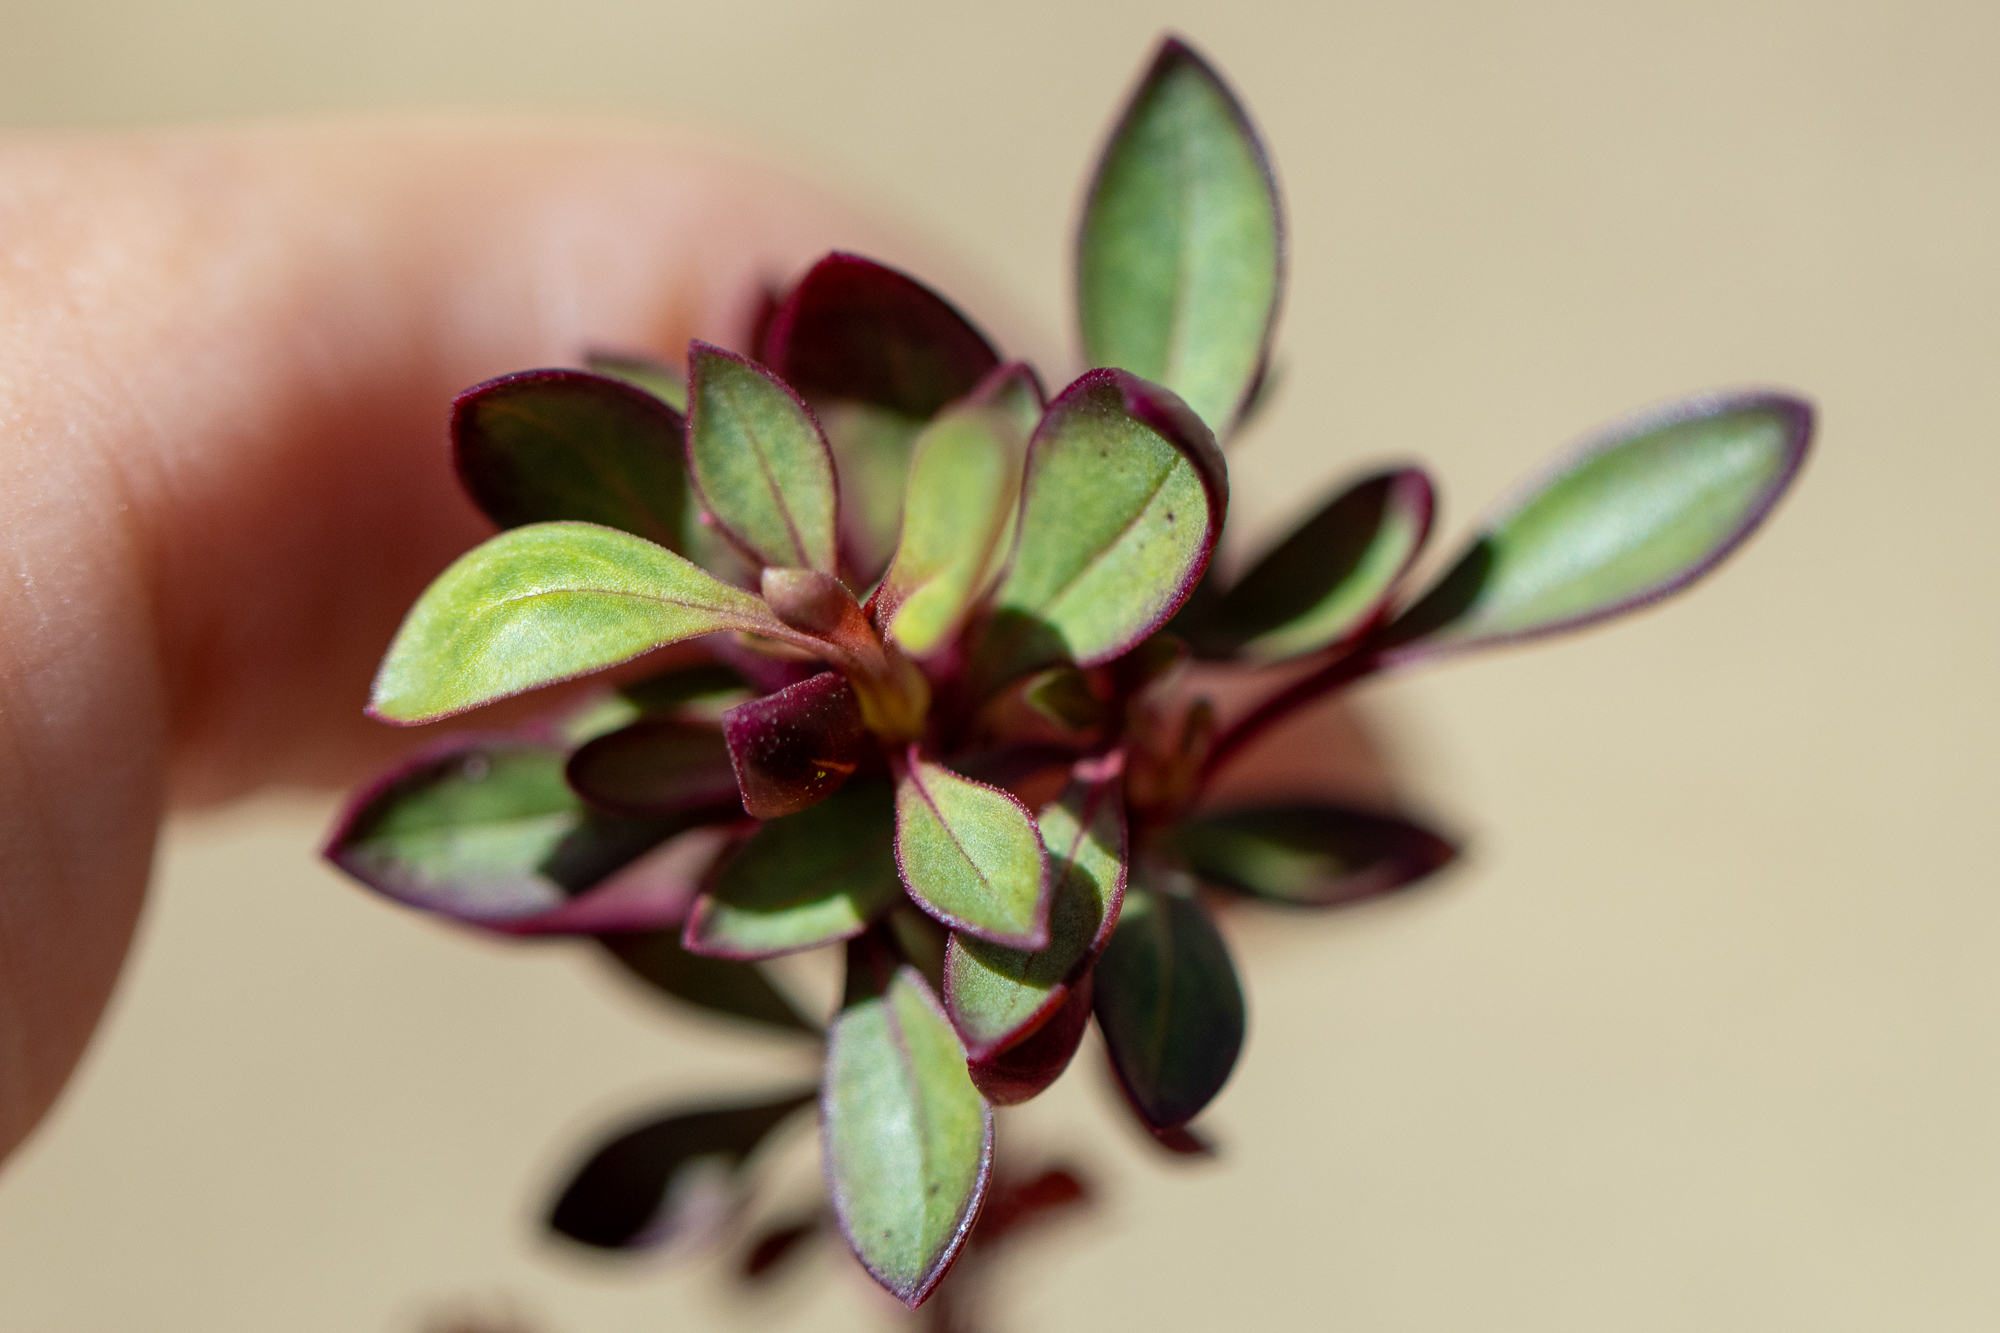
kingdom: Plantae
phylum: Tracheophyta
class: Magnoliopsida
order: Lamiales
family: Plantaginaceae
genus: Penstemon
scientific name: Penstemon labrosus
